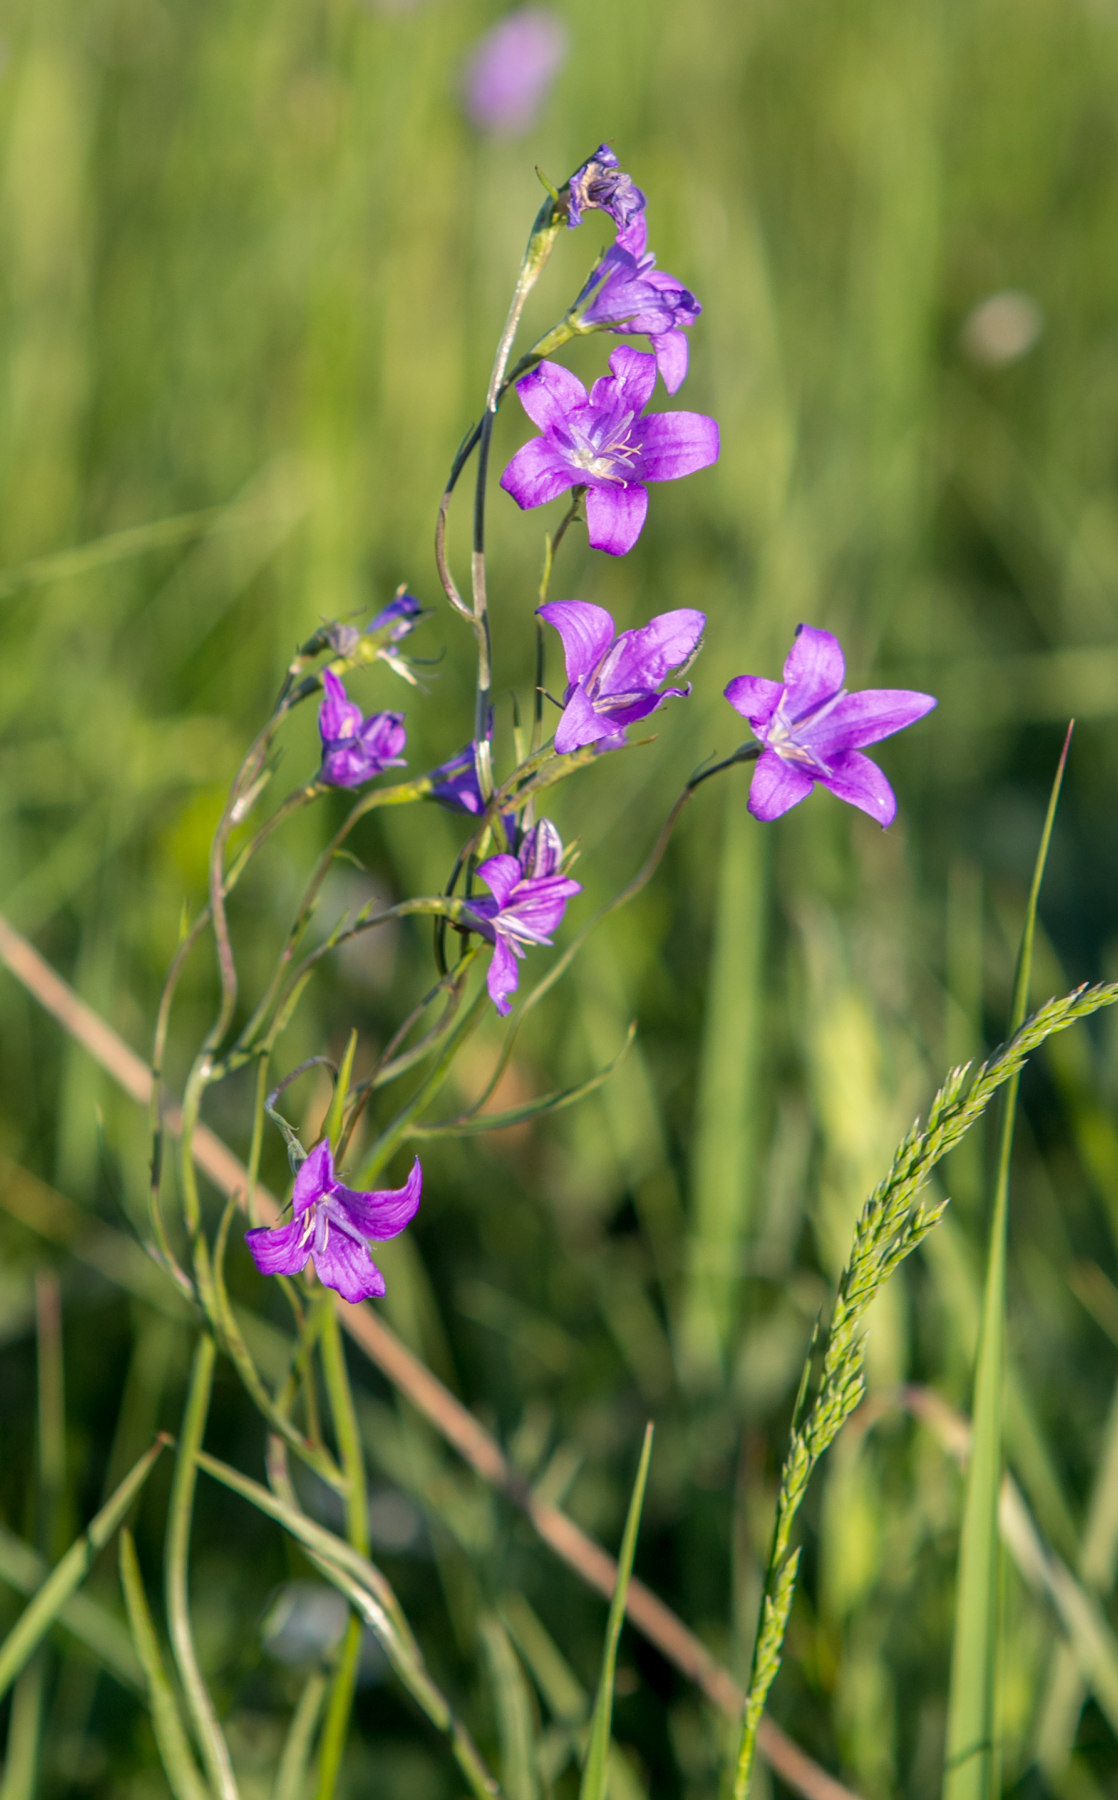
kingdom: Plantae
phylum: Tracheophyta
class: Magnoliopsida
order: Asterales
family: Campanulaceae
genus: Campanula
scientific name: Campanula patula
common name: Spreading bellflower
